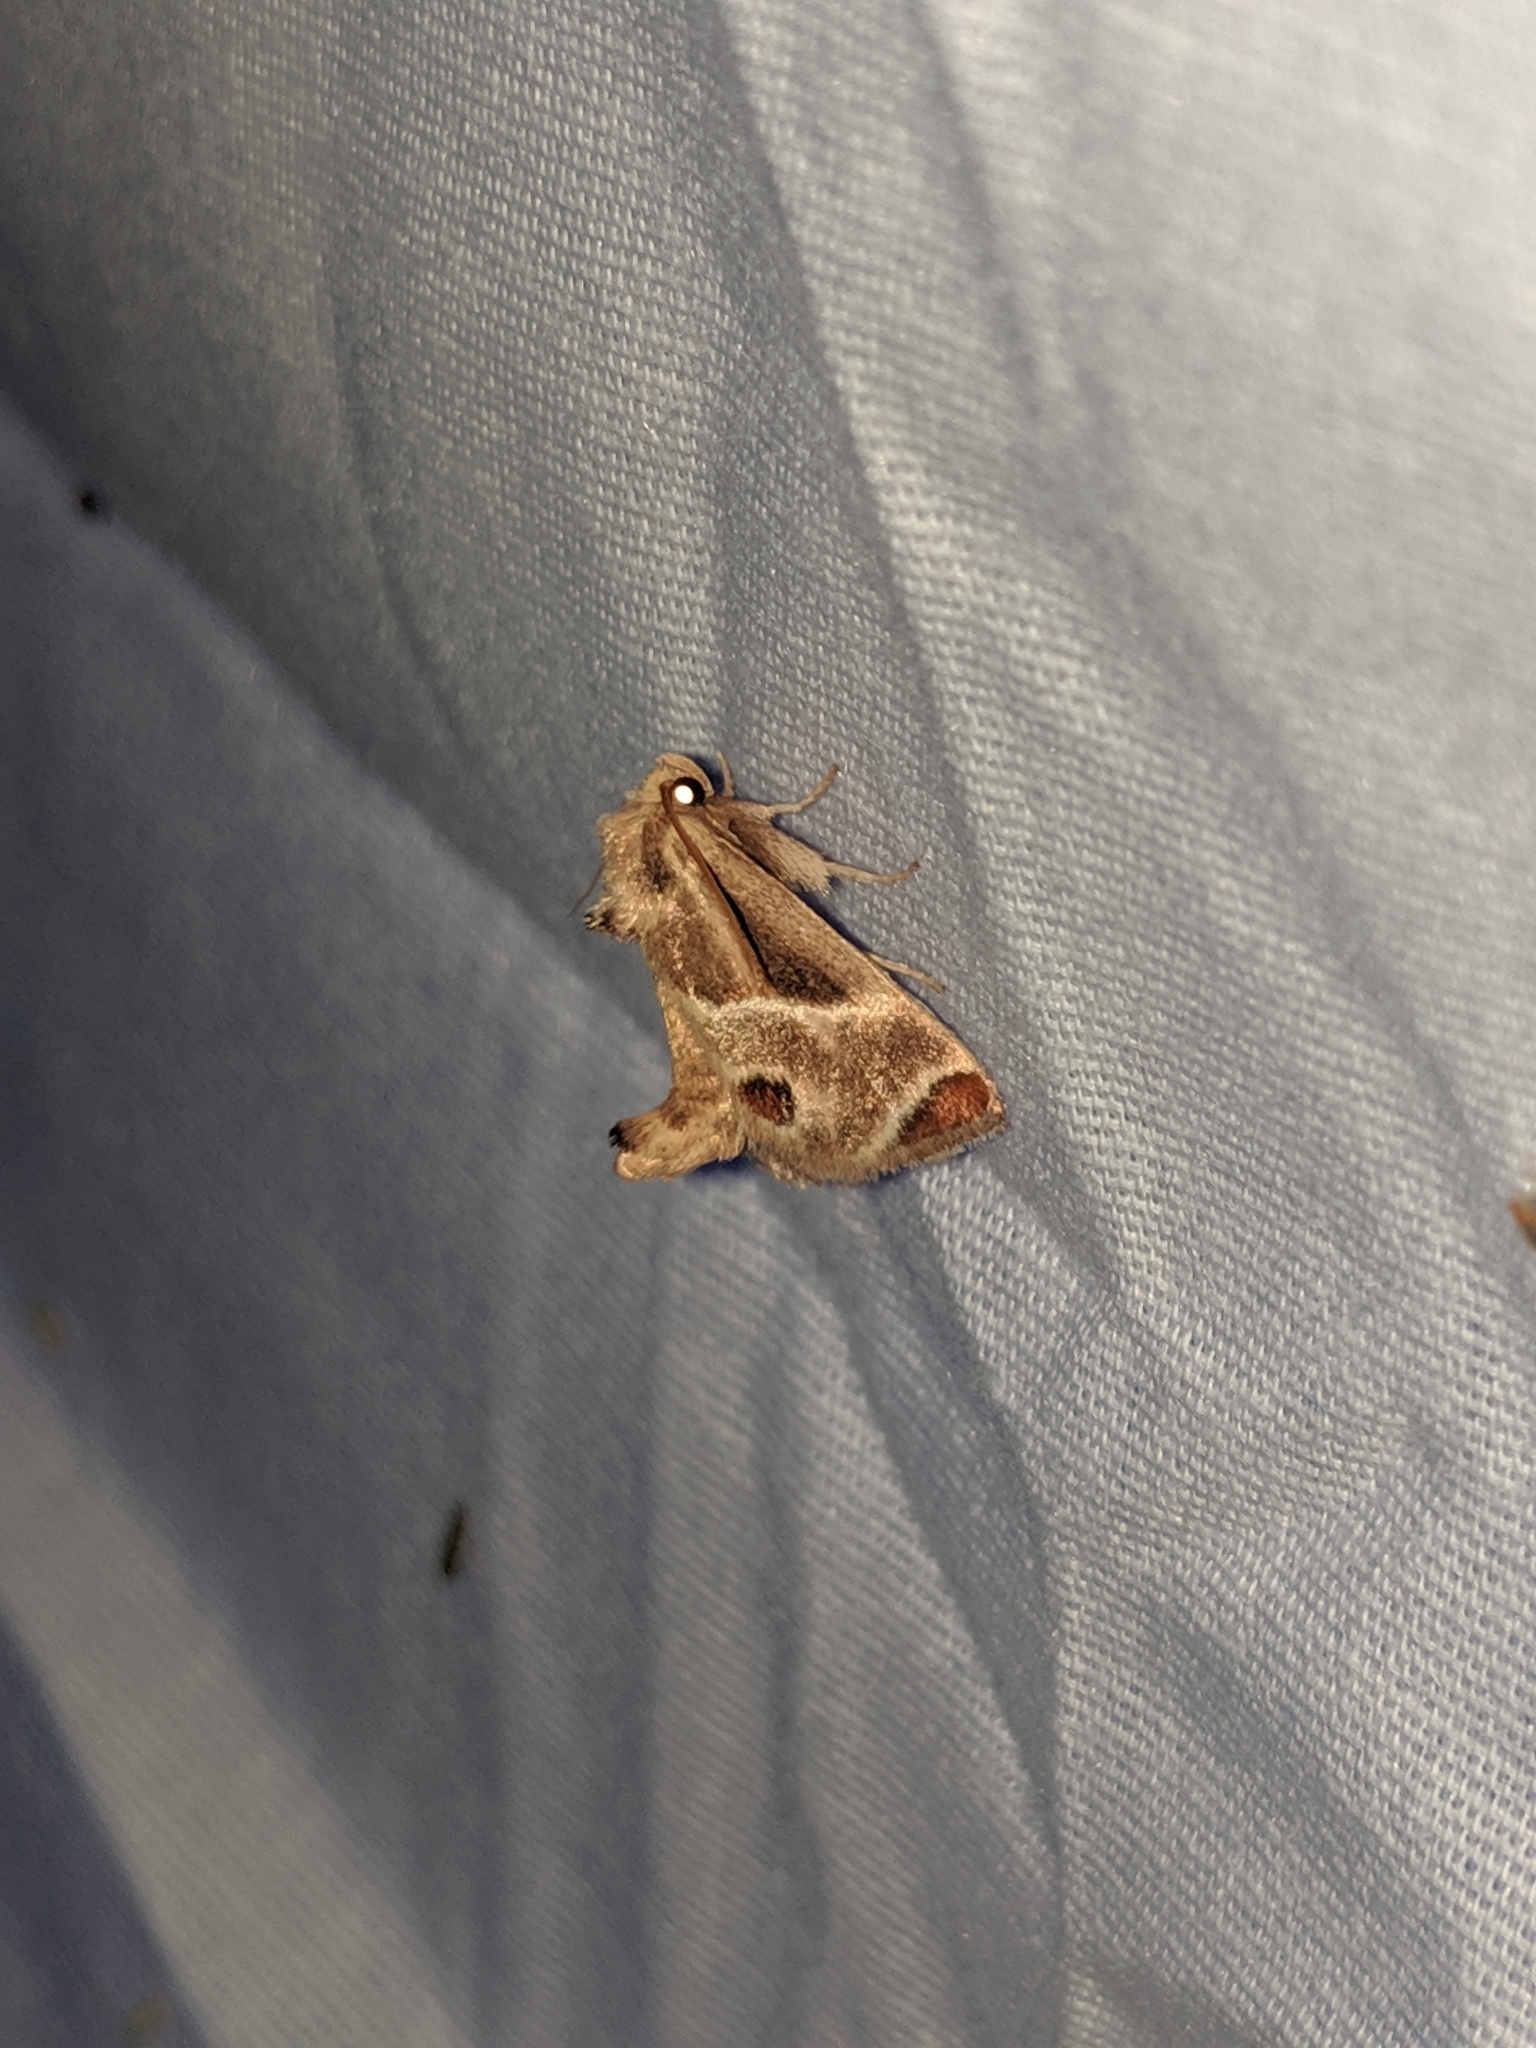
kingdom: Animalia
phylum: Arthropoda
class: Insecta
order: Lepidoptera
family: Limacodidae
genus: Apoda
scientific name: Apoda biguttata
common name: Shagreened slug moth
